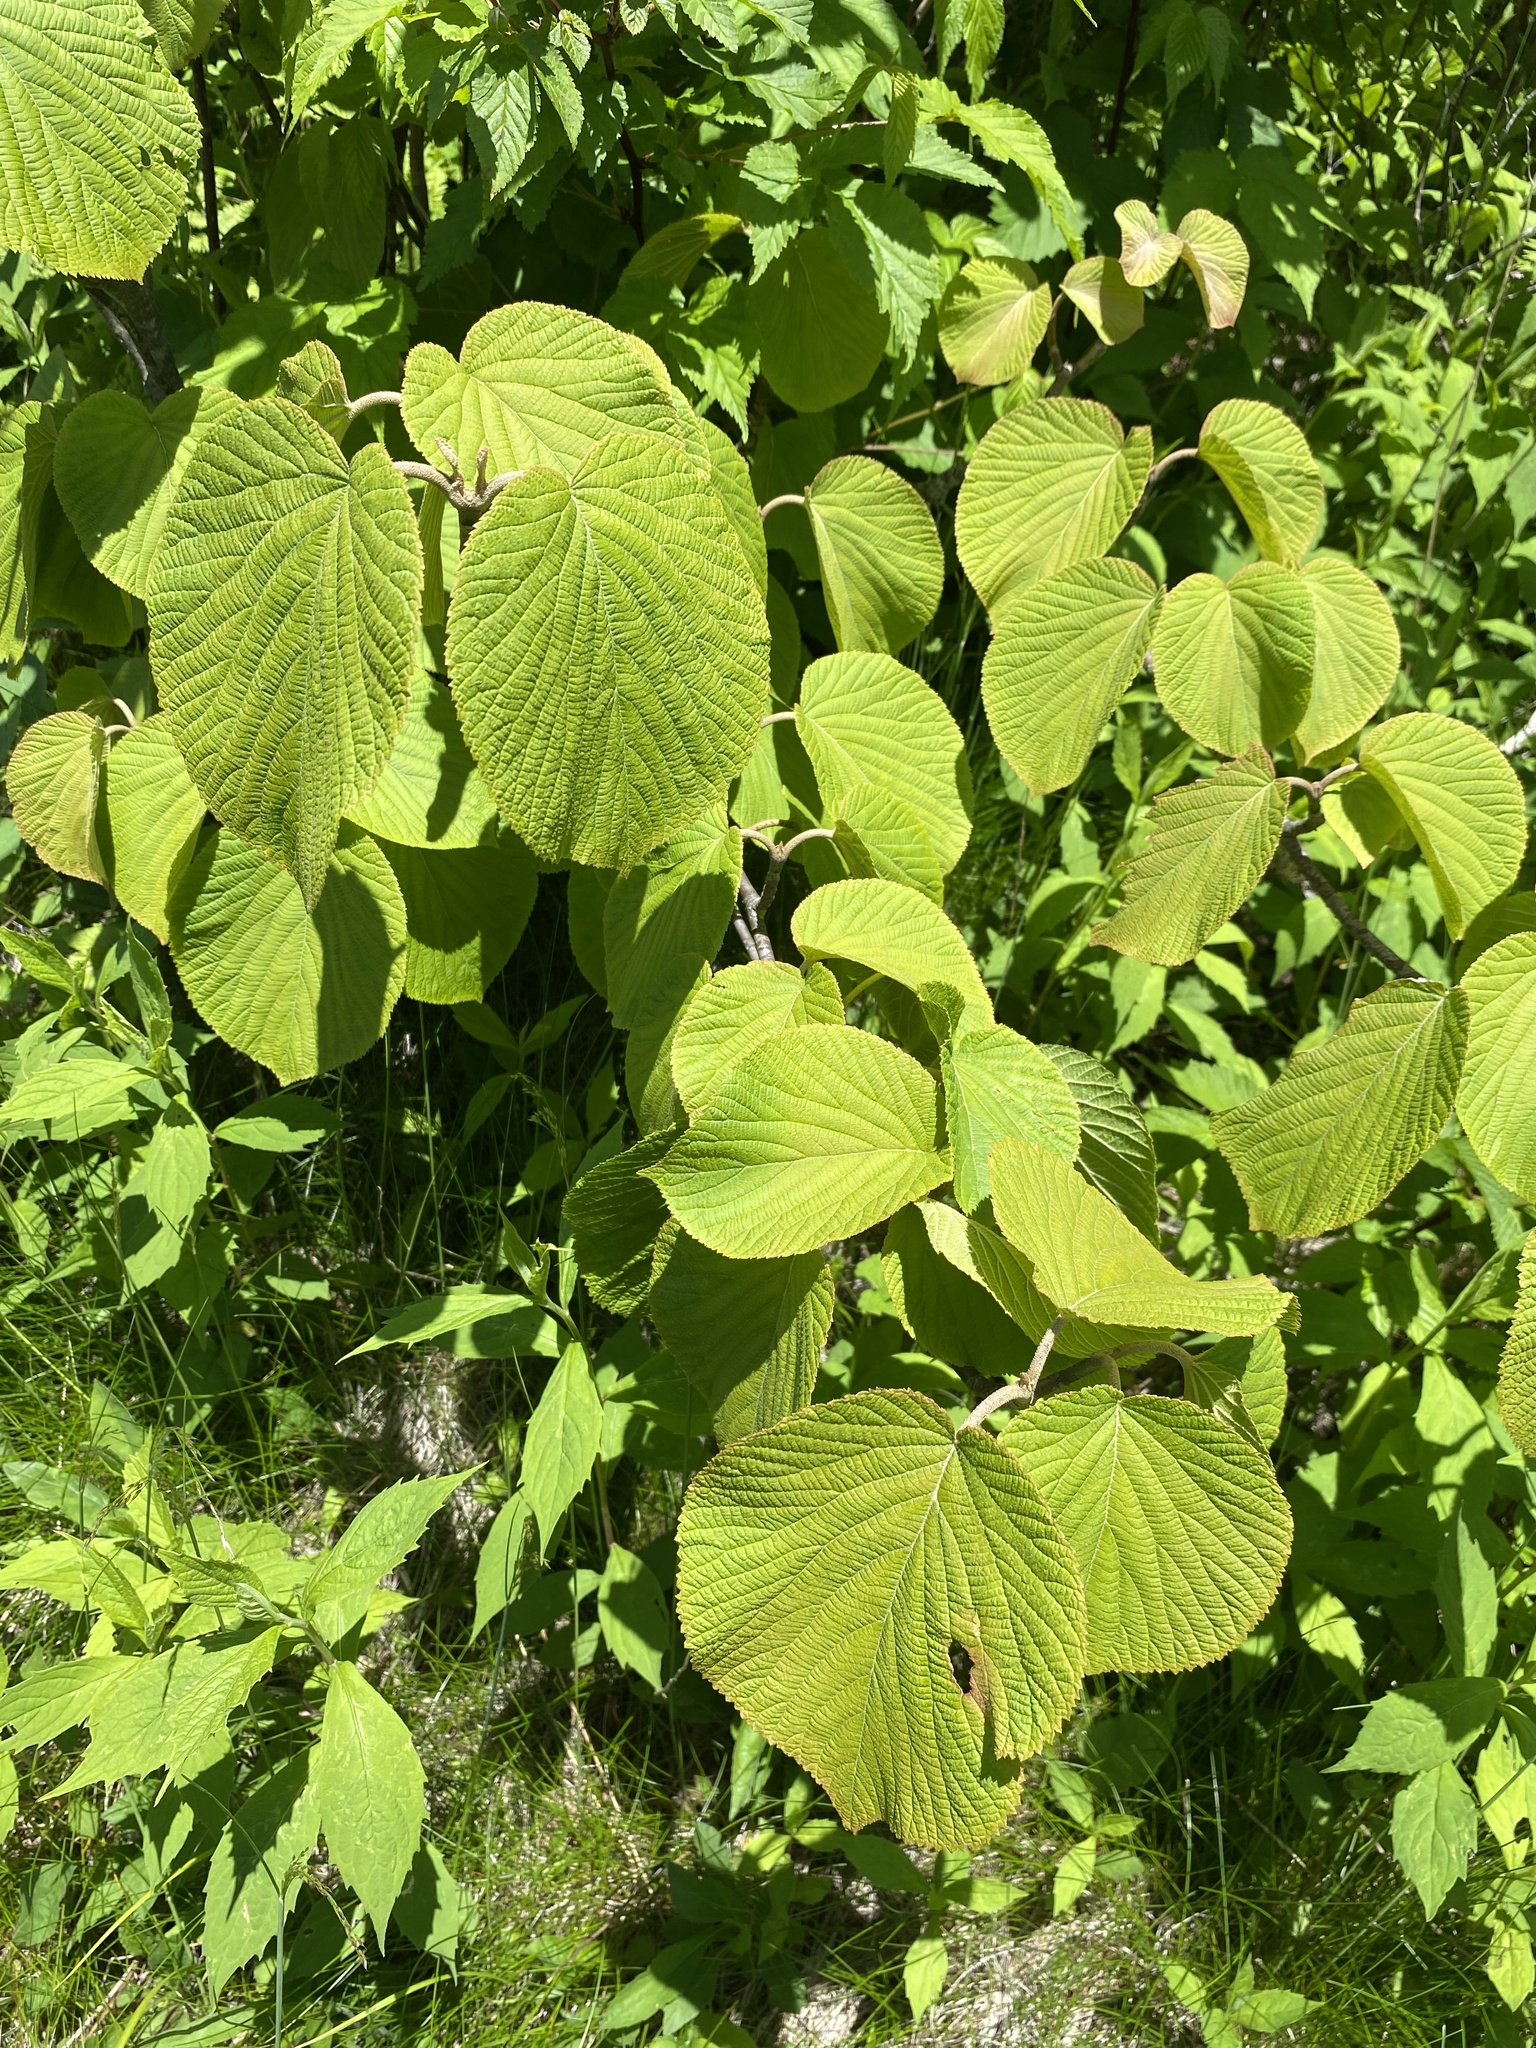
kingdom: Plantae
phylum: Tracheophyta
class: Magnoliopsida
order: Dipsacales
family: Viburnaceae
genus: Viburnum
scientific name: Viburnum lantanoides
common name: Hobblebush
